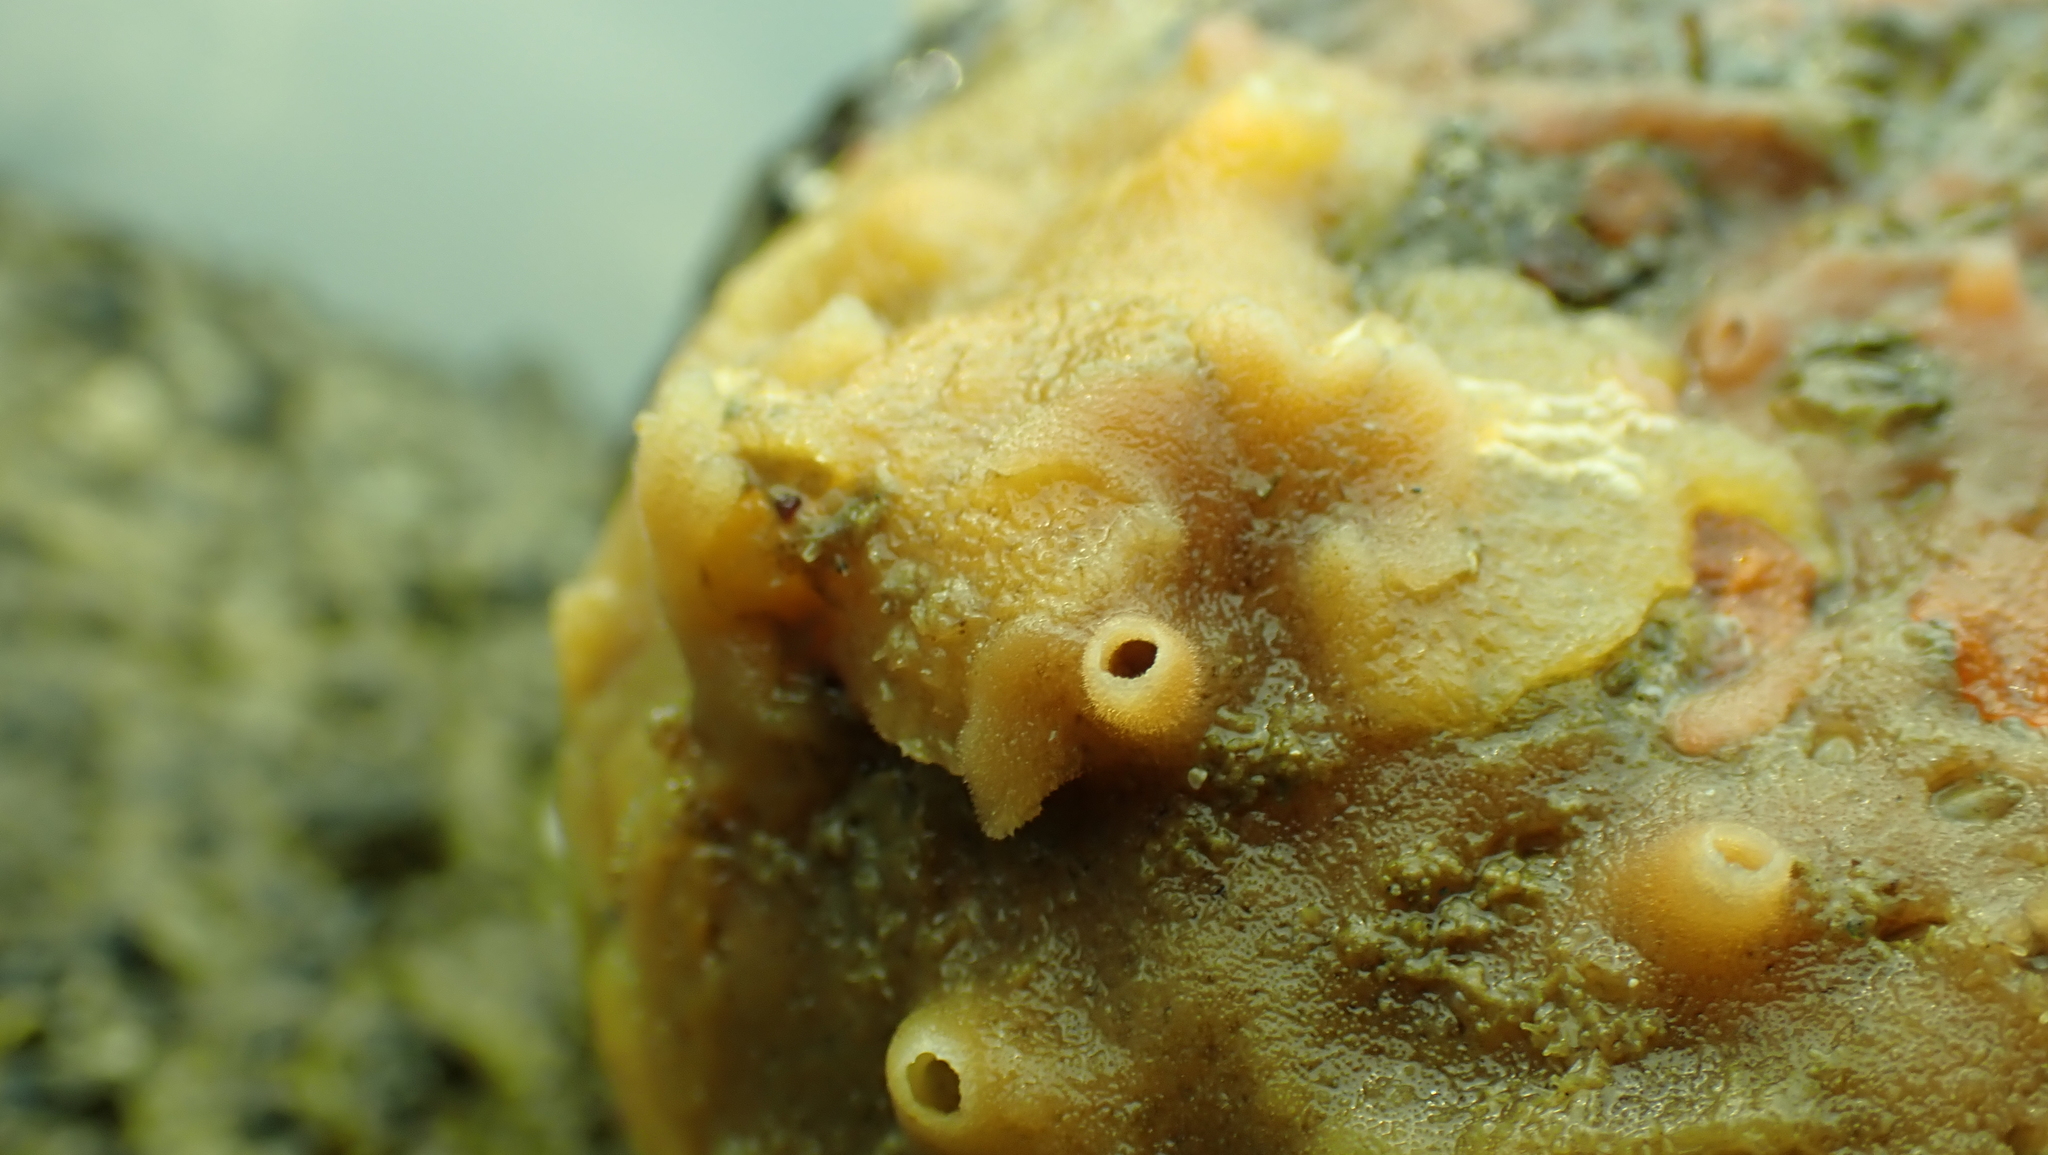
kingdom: Animalia
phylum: Mollusca
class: Gastropoda
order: Nudibranchia
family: Discodorididae
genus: Diaulula
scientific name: Diaulula odonoghuei
